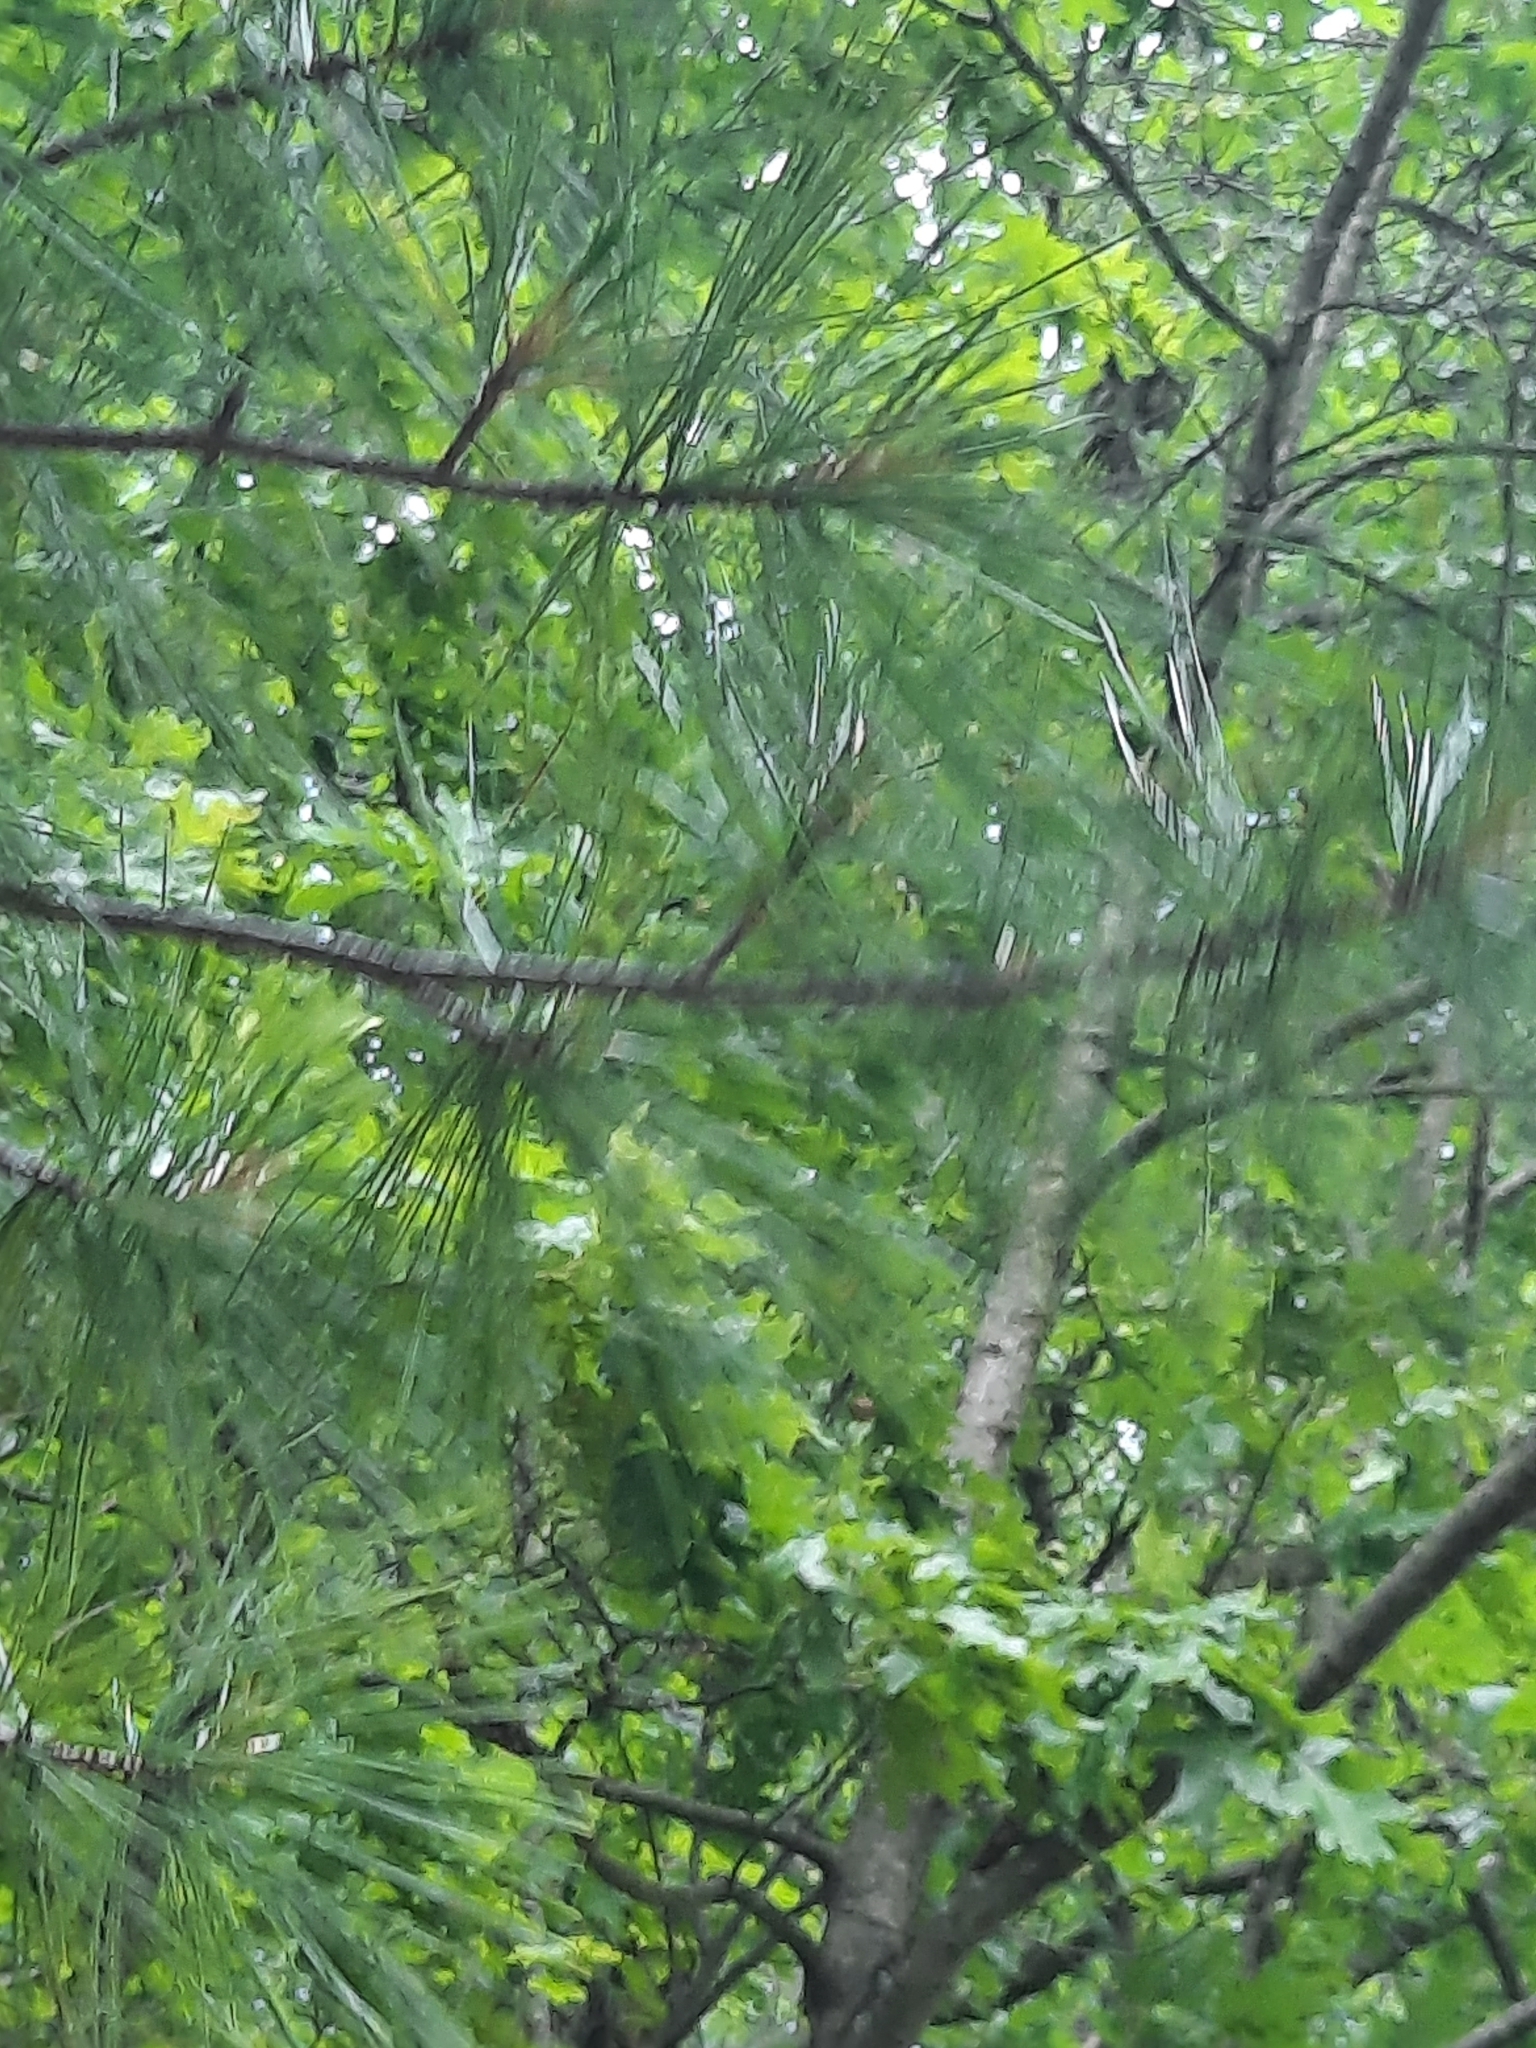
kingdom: Plantae
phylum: Tracheophyta
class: Pinopsida
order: Pinales
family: Pinaceae
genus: Pinus
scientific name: Pinus strobus
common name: Weymouth pine
